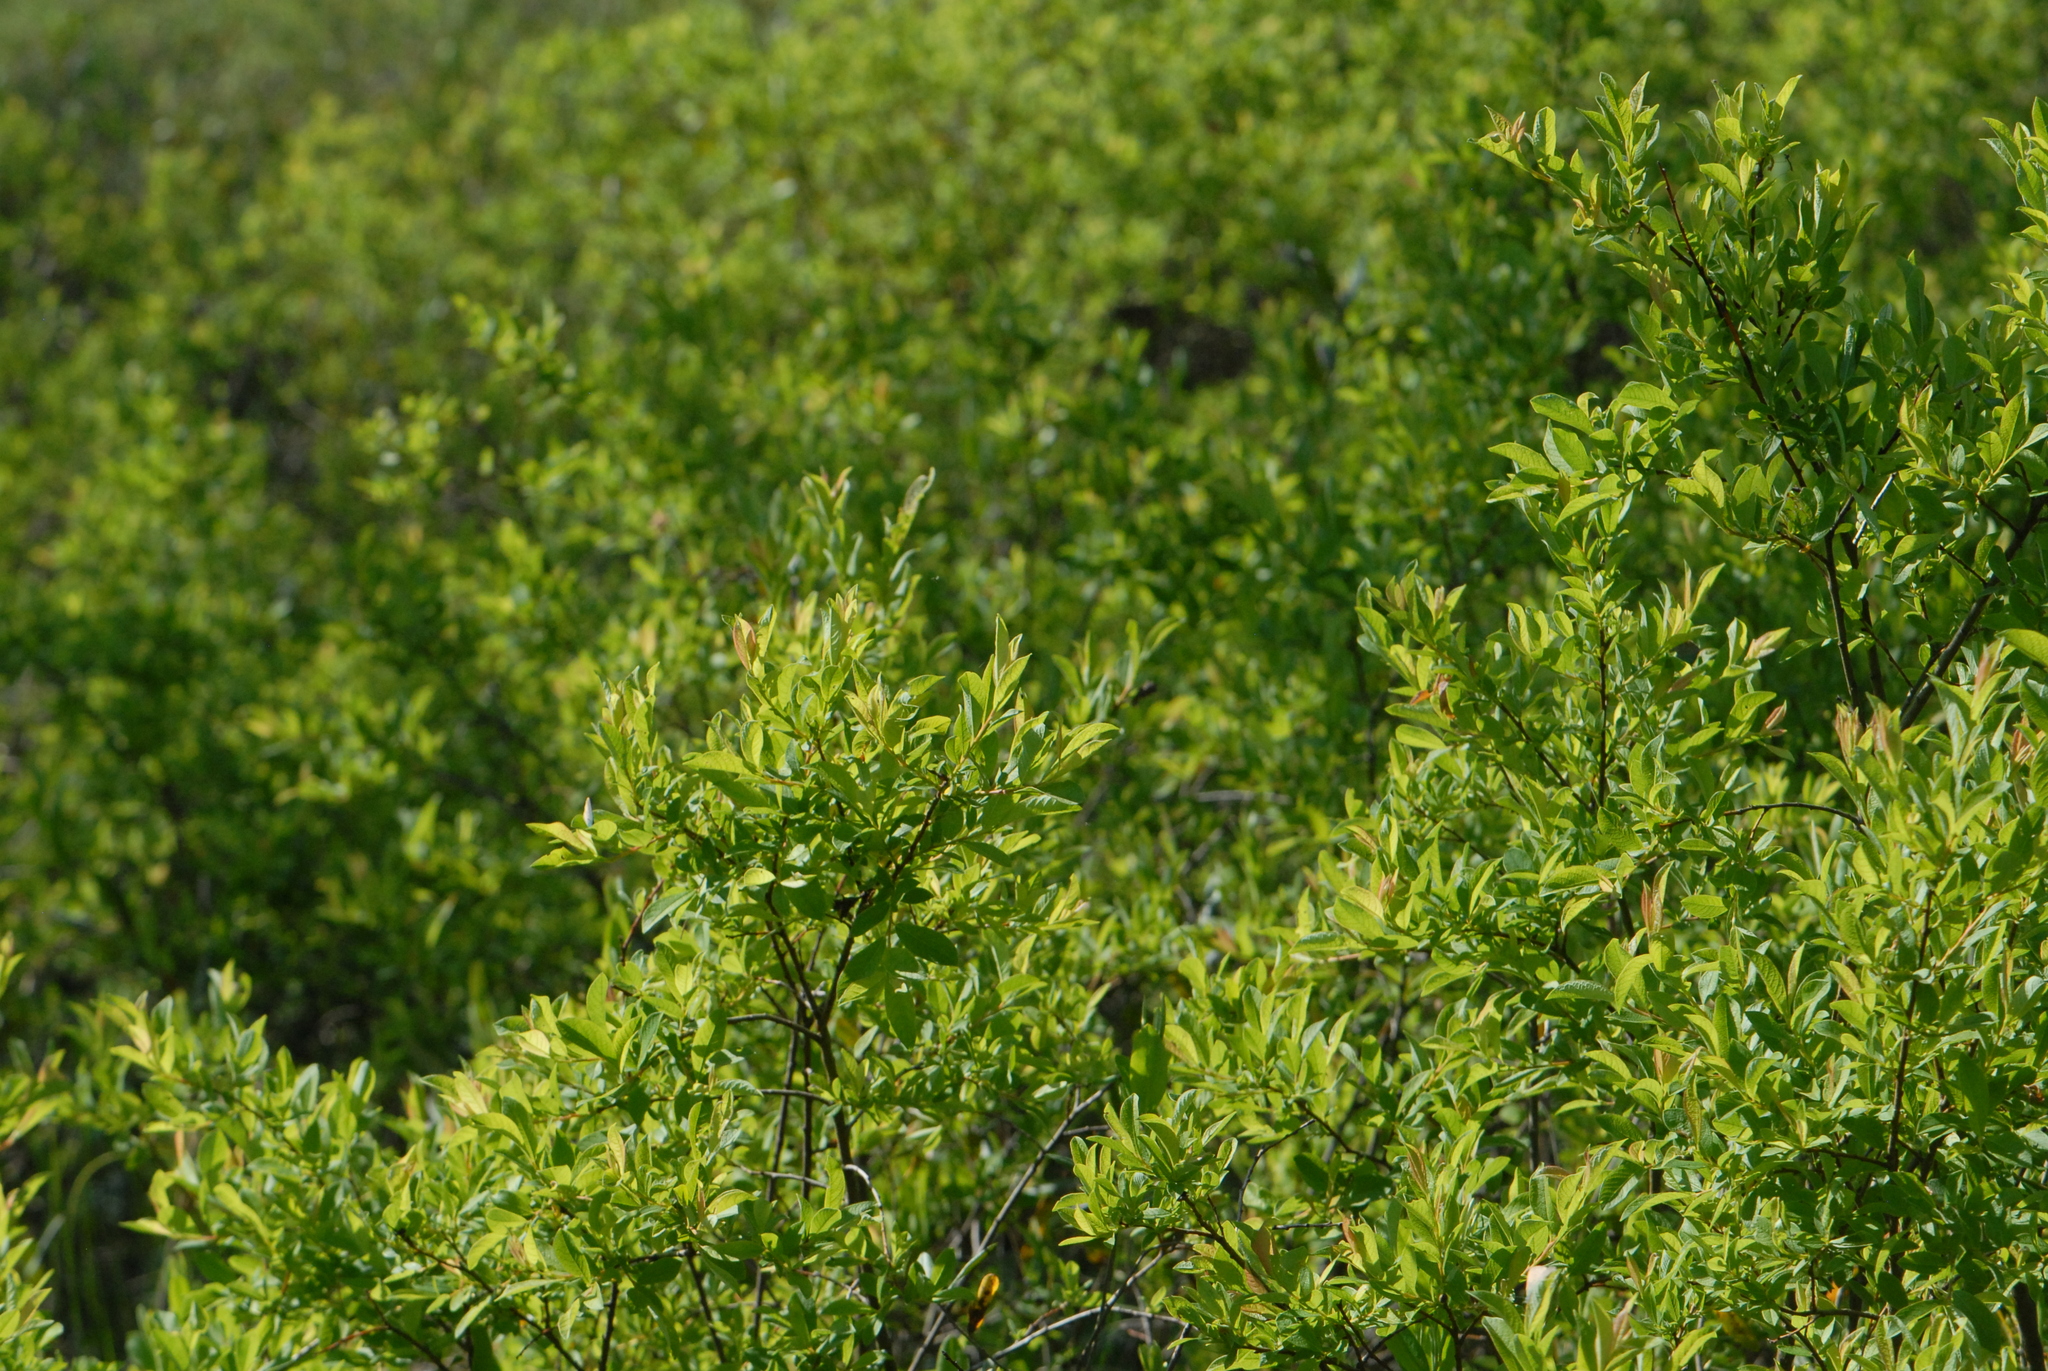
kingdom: Plantae
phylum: Tracheophyta
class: Magnoliopsida
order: Malpighiales
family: Salicaceae
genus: Salix
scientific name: Salix starkeana
